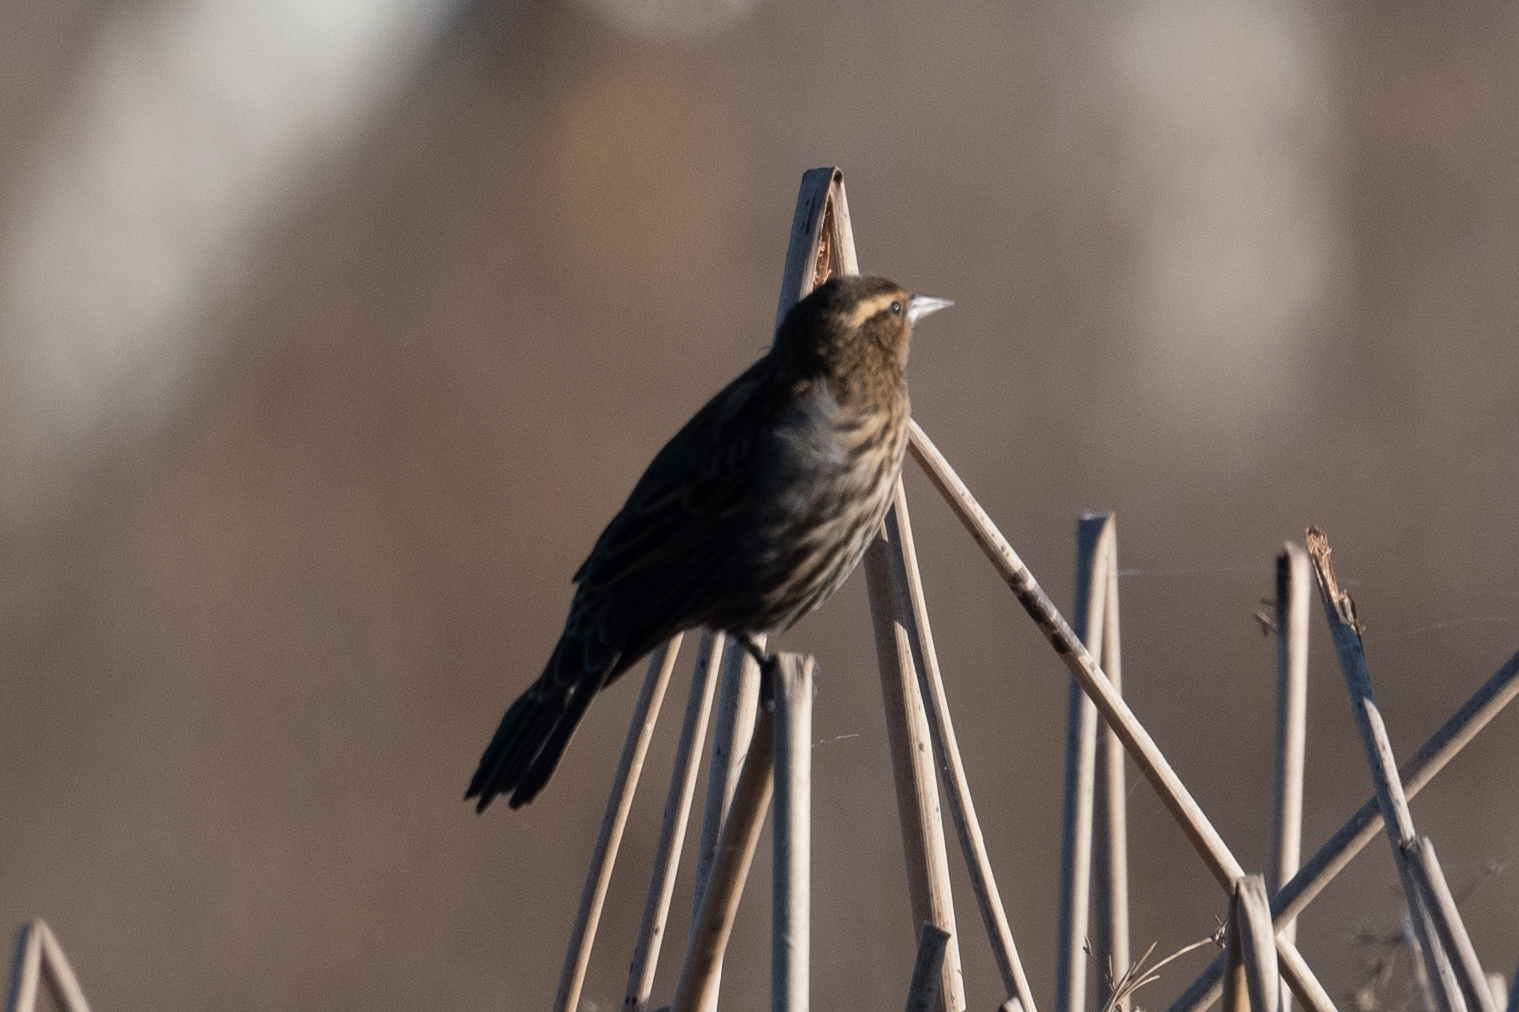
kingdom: Animalia
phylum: Chordata
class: Aves
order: Passeriformes
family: Icteridae
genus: Agelaius
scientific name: Agelaius phoeniceus
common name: Red-winged blackbird
